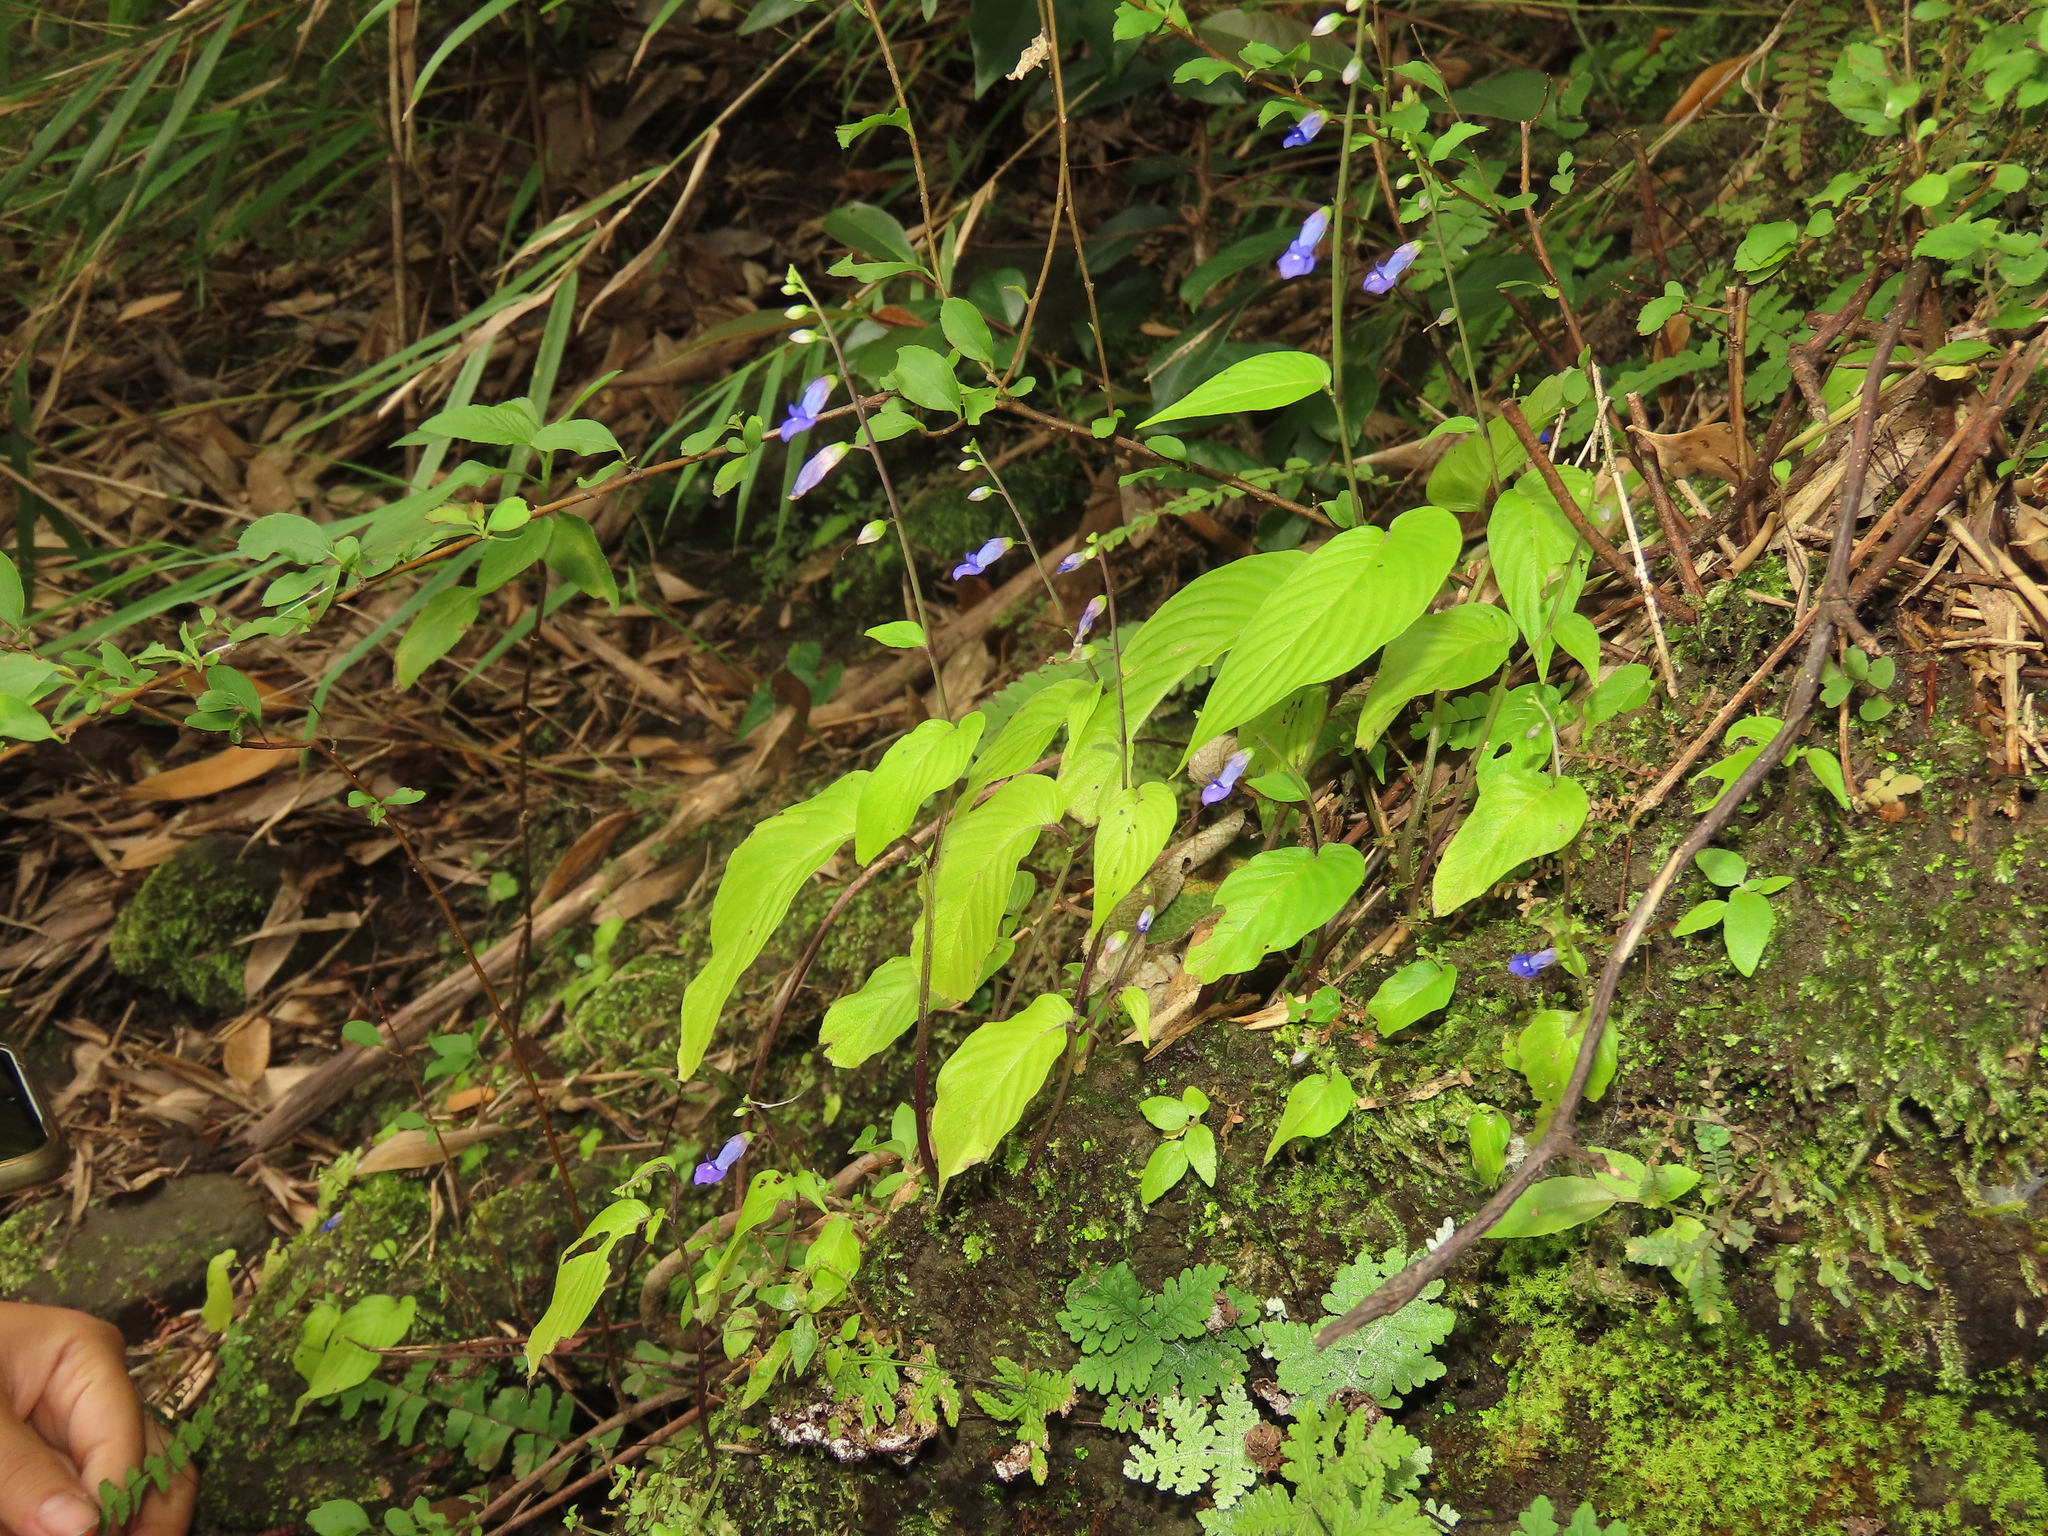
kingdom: Plantae
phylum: Tracheophyta
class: Magnoliopsida
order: Lamiales
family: Gesneriaceae
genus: Rhynchoglossum
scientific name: Rhynchoglossum obliquum
